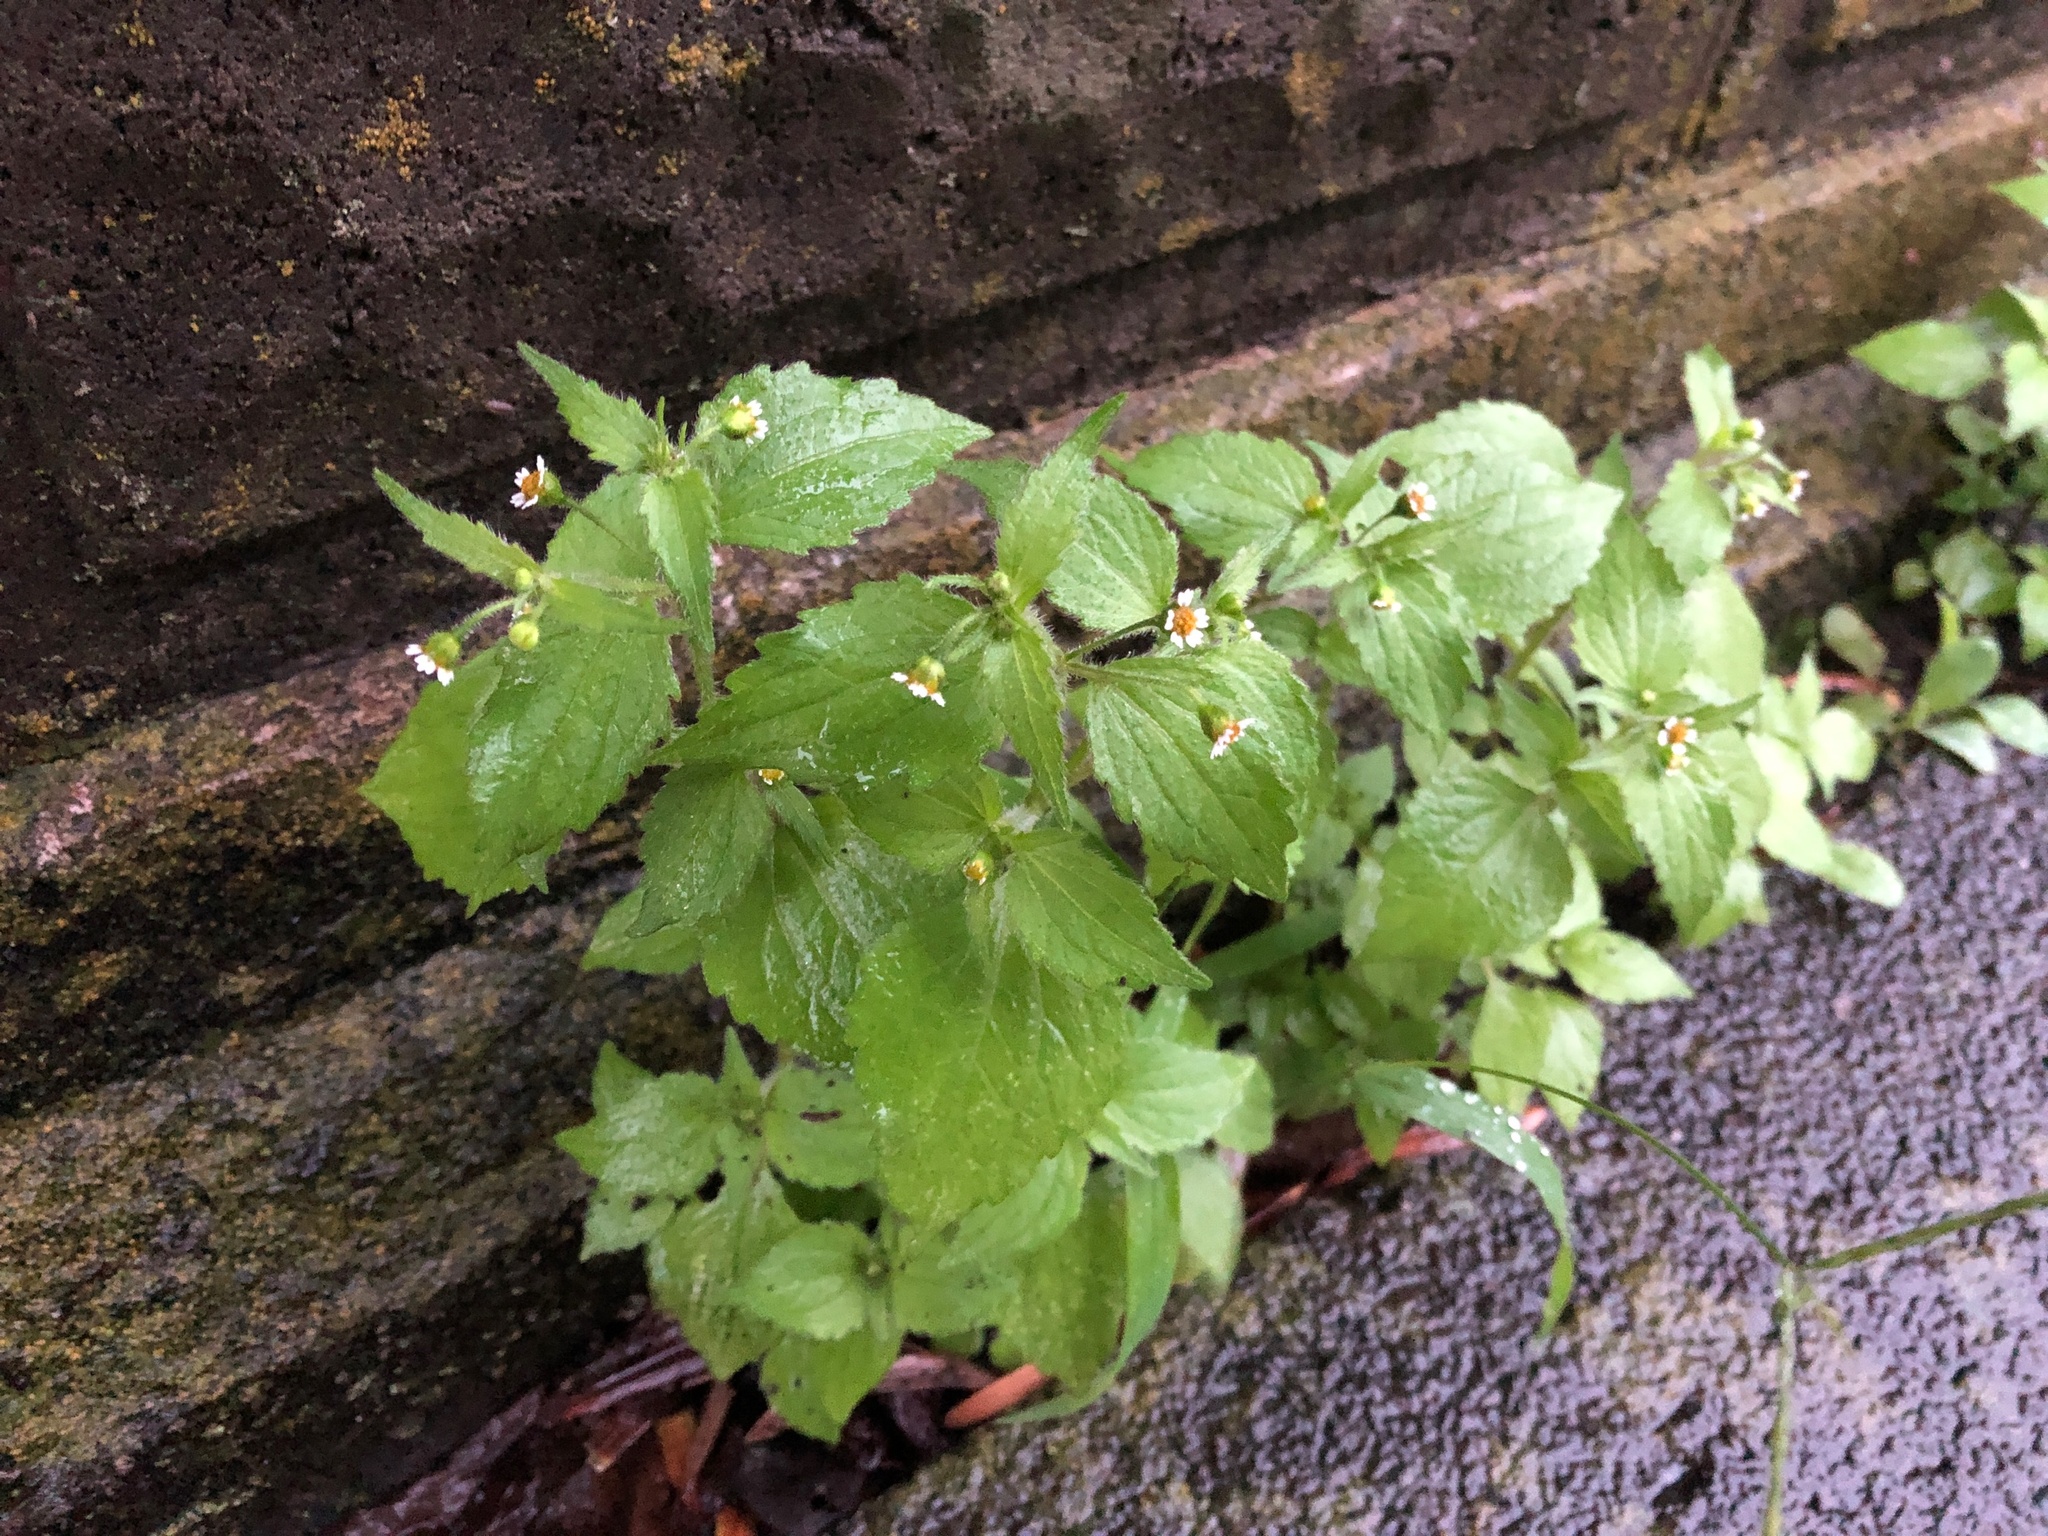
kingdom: Plantae
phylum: Tracheophyta
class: Magnoliopsida
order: Asterales
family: Asteraceae
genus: Galinsoga
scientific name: Galinsoga quadriradiata
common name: Shaggy soldier
